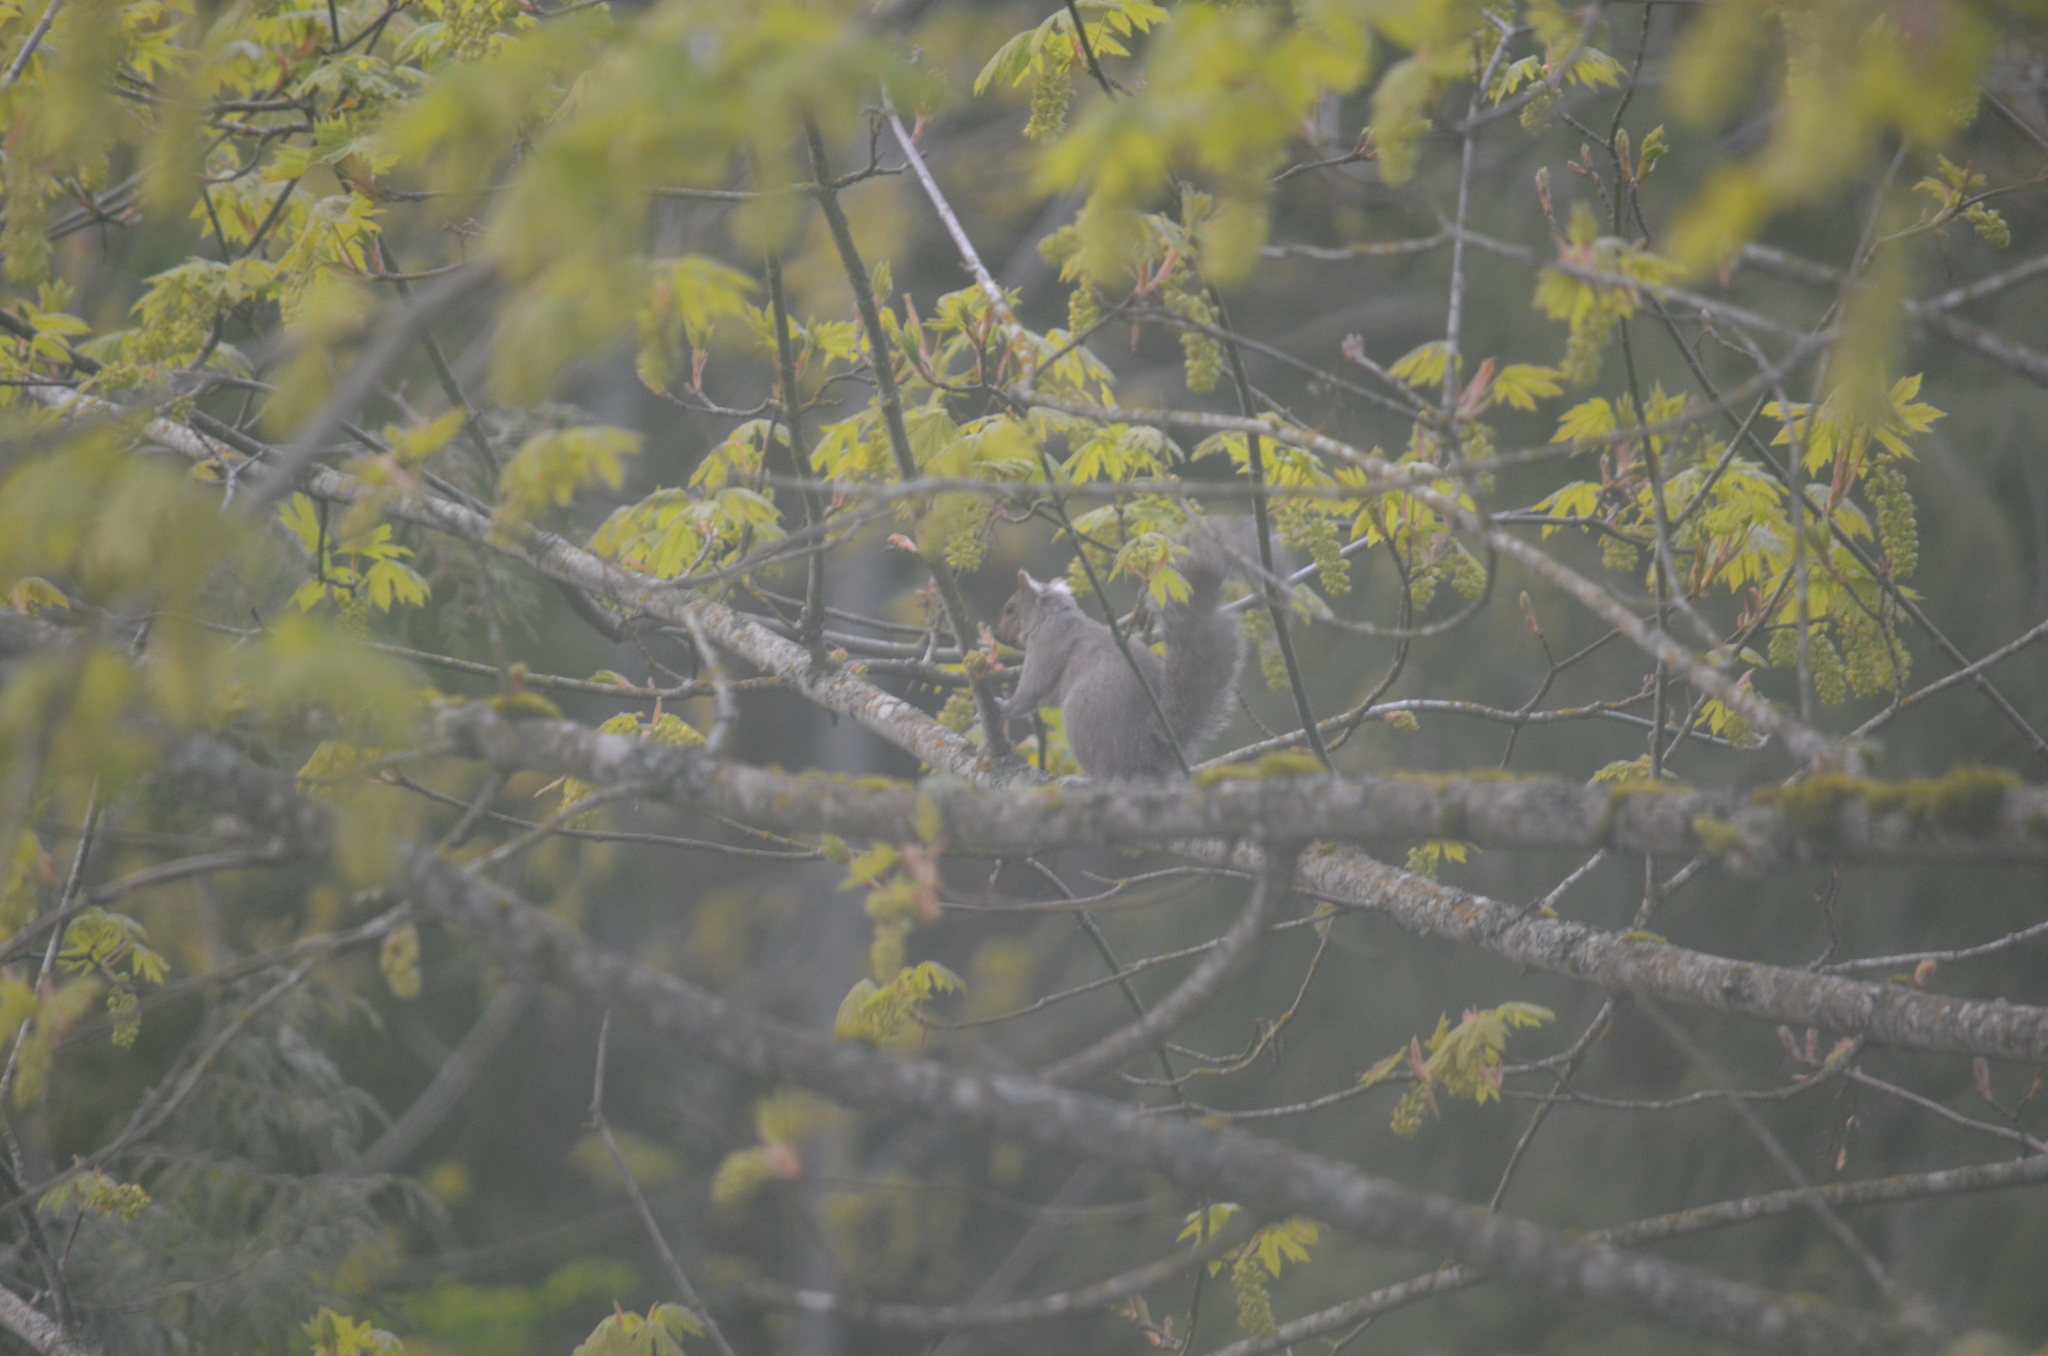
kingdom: Animalia
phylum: Chordata
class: Mammalia
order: Rodentia
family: Sciuridae
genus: Sciurus
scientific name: Sciurus carolinensis
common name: Eastern gray squirrel
